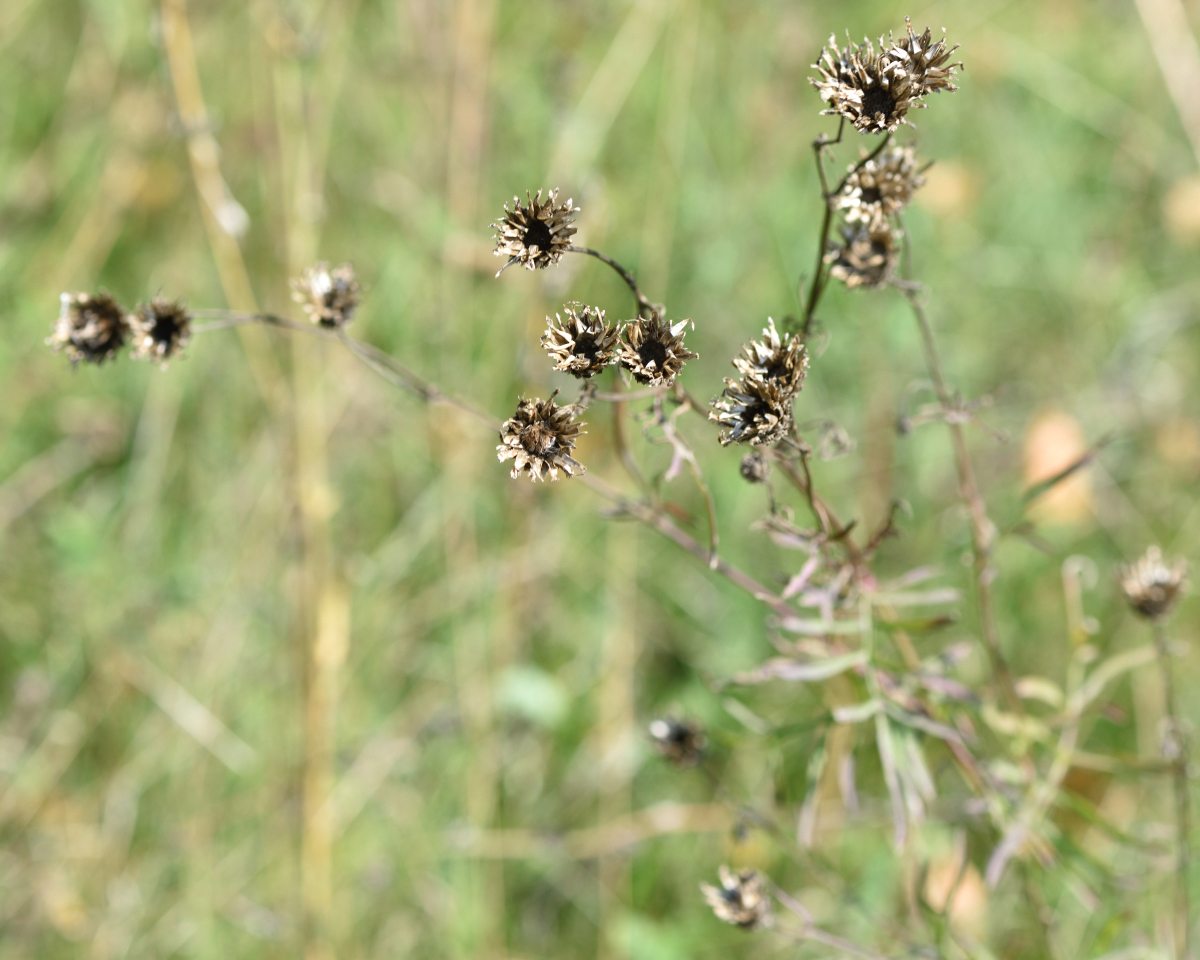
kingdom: Plantae
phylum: Tracheophyta
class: Magnoliopsida
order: Asterales
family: Asteraceae
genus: Centaurea
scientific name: Centaurea scabiosa
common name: Greater knapweed
